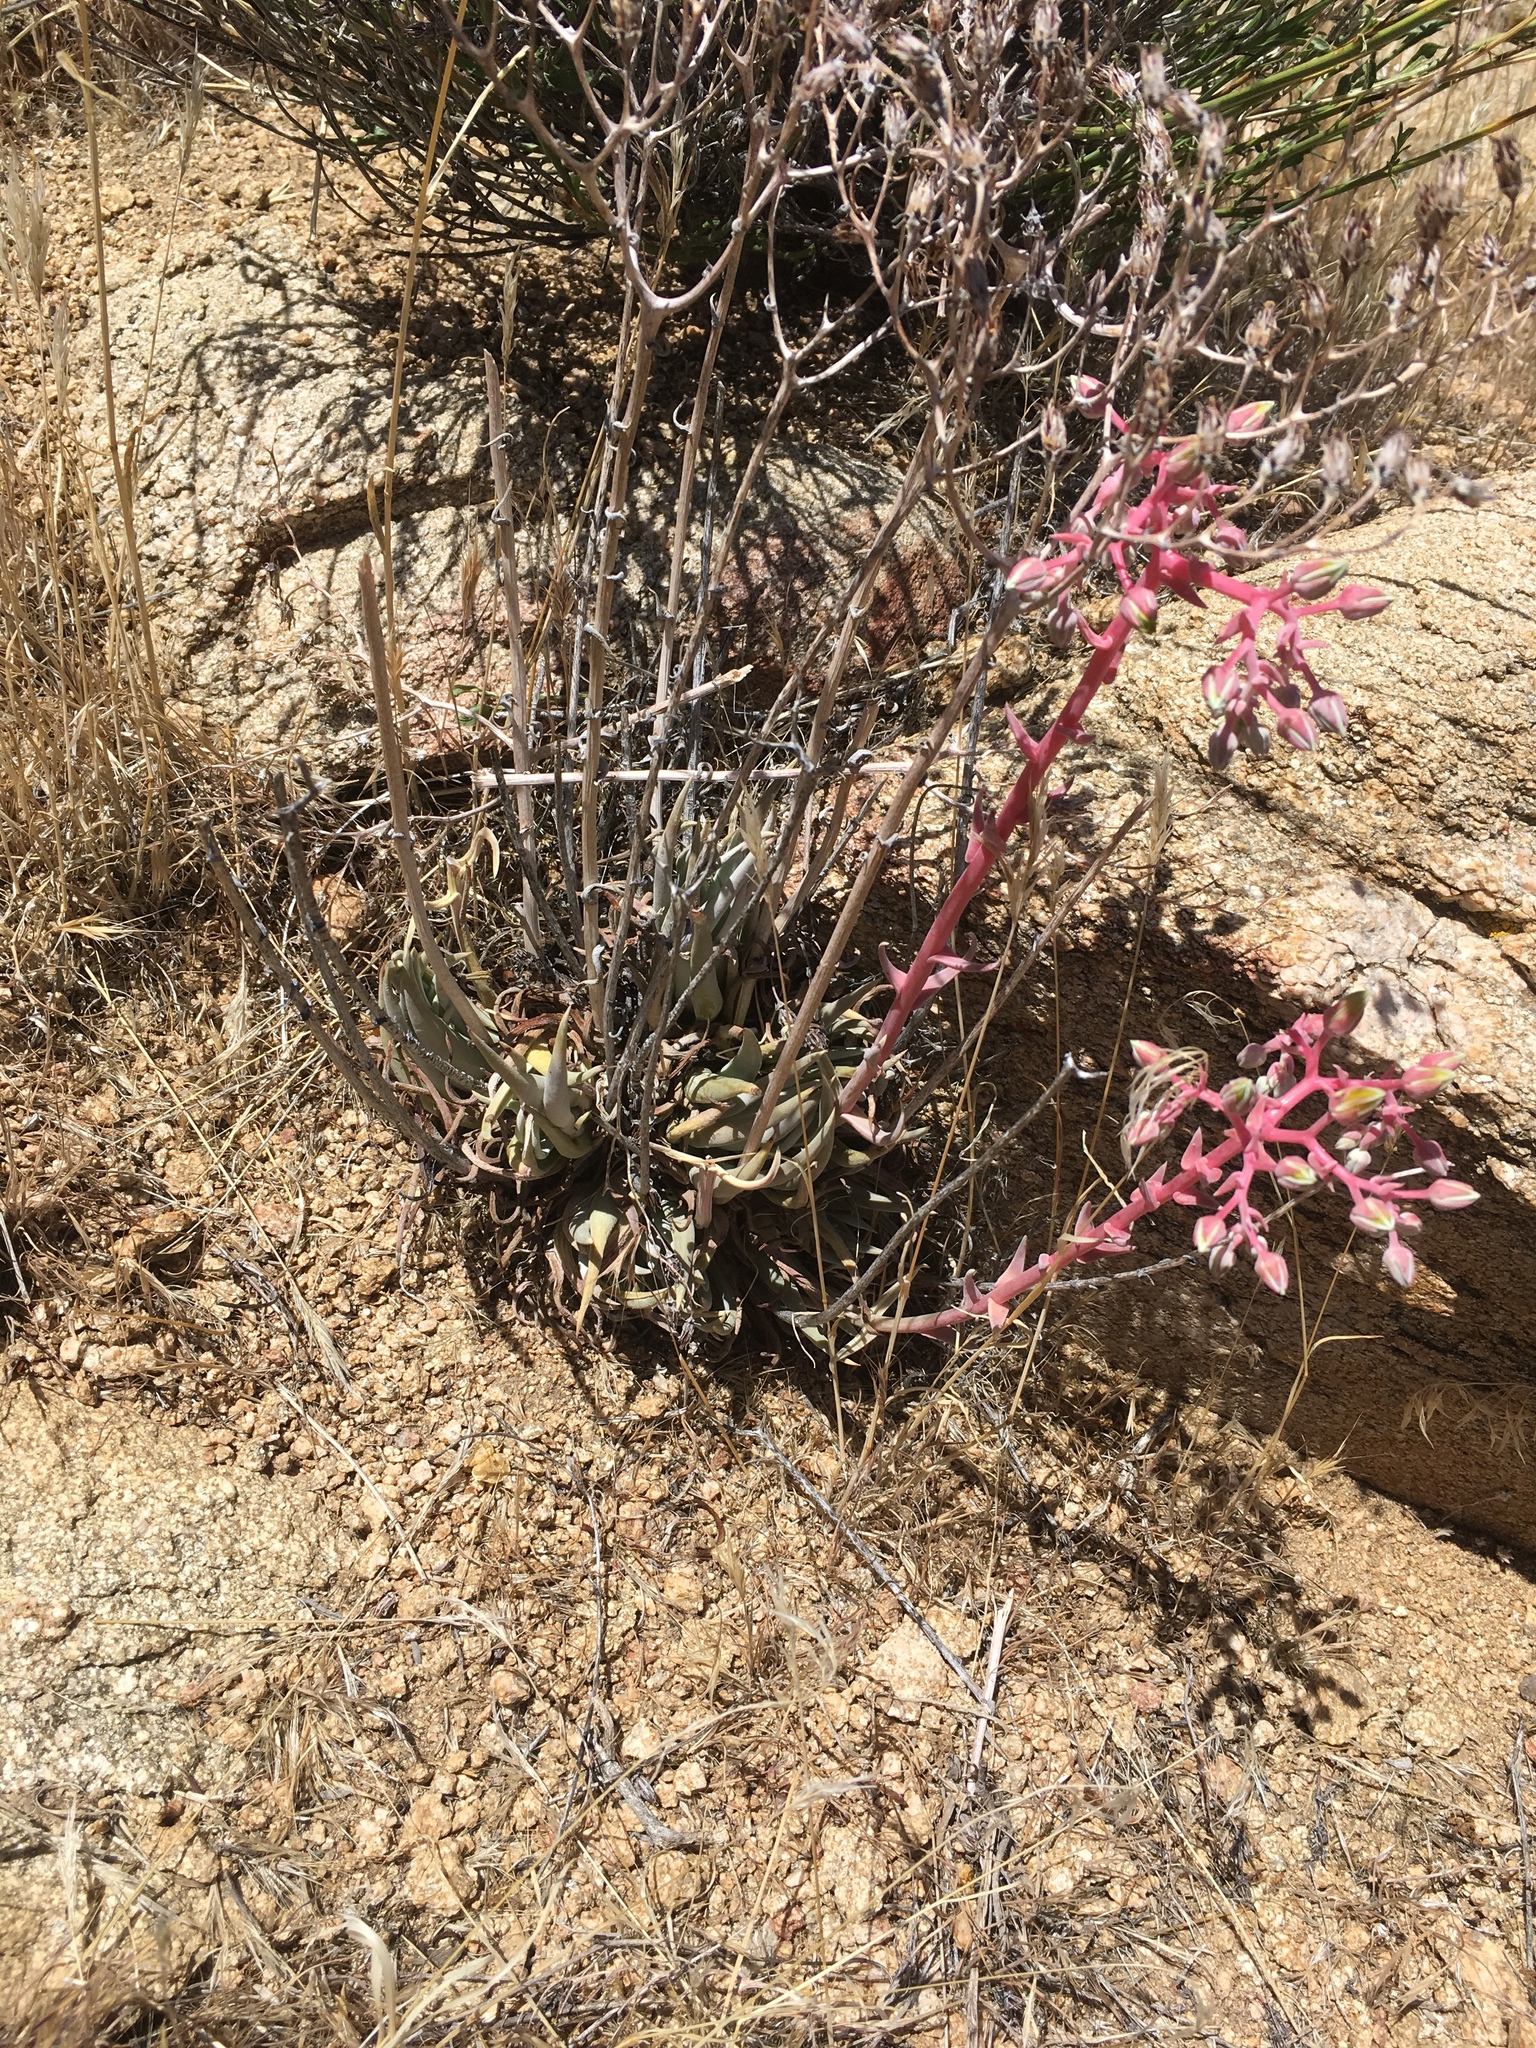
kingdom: Plantae
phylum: Tracheophyta
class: Magnoliopsida
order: Saxifragales
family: Crassulaceae
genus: Dudleya
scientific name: Dudleya saxosa
